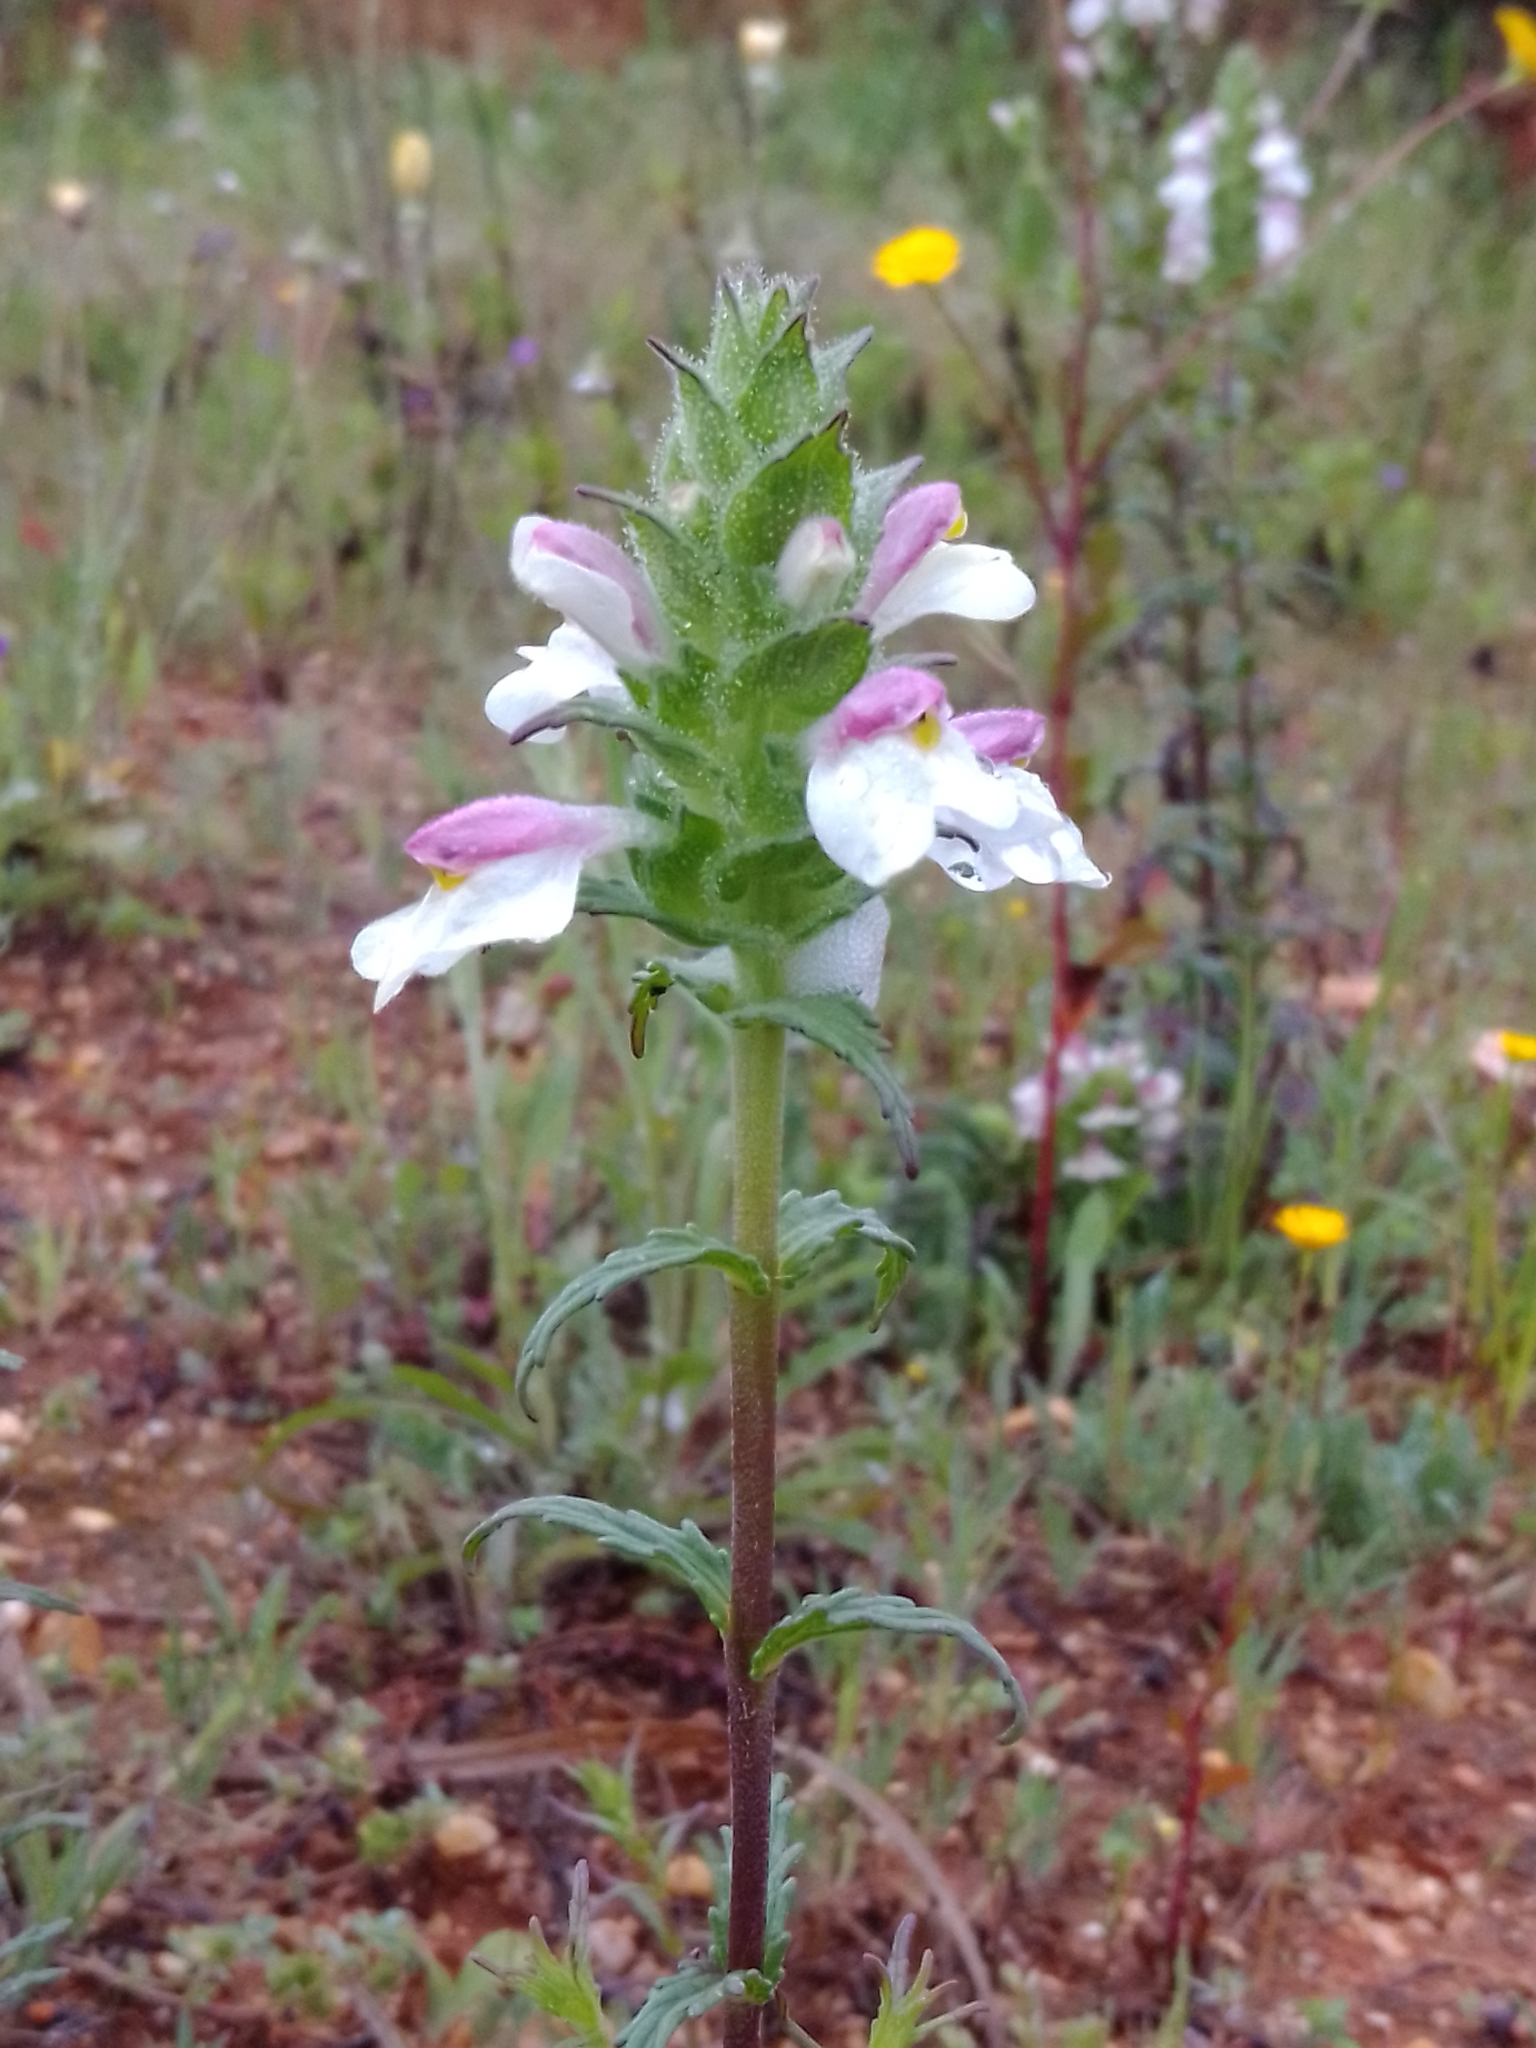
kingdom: Plantae
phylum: Tracheophyta
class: Magnoliopsida
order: Lamiales
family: Orobanchaceae
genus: Bellardia
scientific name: Bellardia trixago
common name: Mediterranean lineseed
